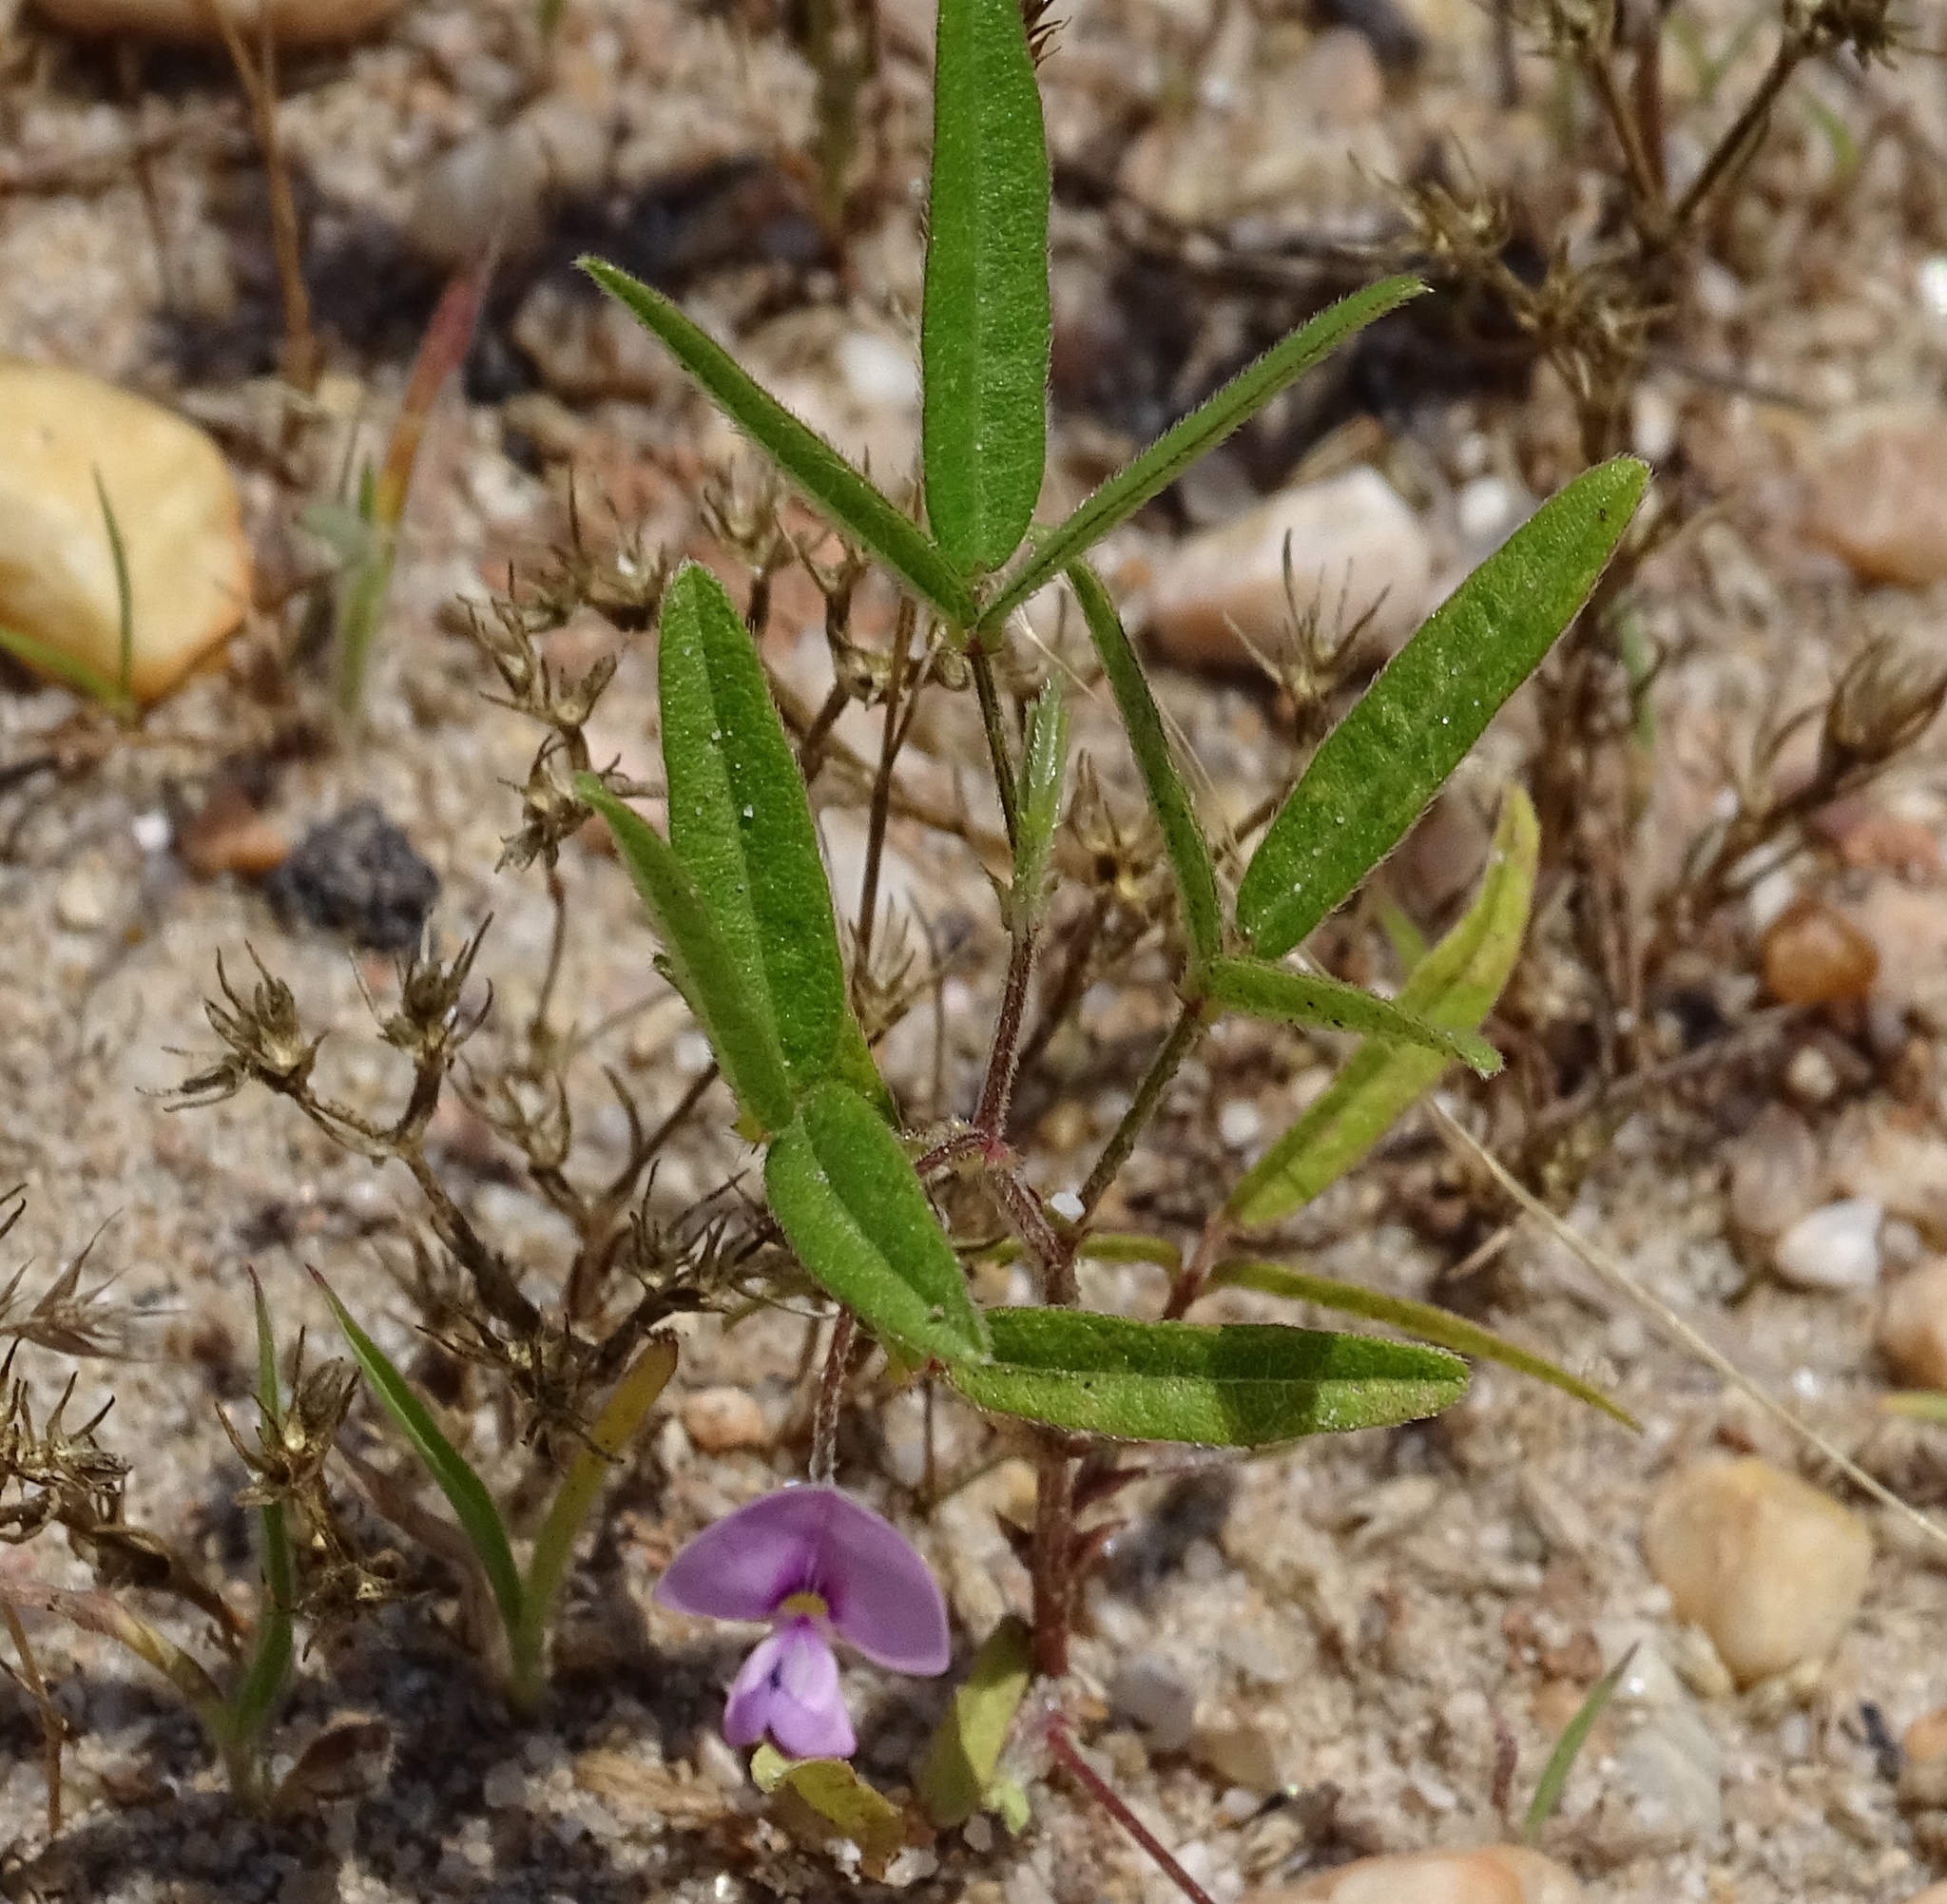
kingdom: Plantae
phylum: Tracheophyta
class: Magnoliopsida
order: Fabales
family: Fabaceae
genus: Strophostyles
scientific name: Strophostyles leiosperma
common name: Smooth-seed wild bean
